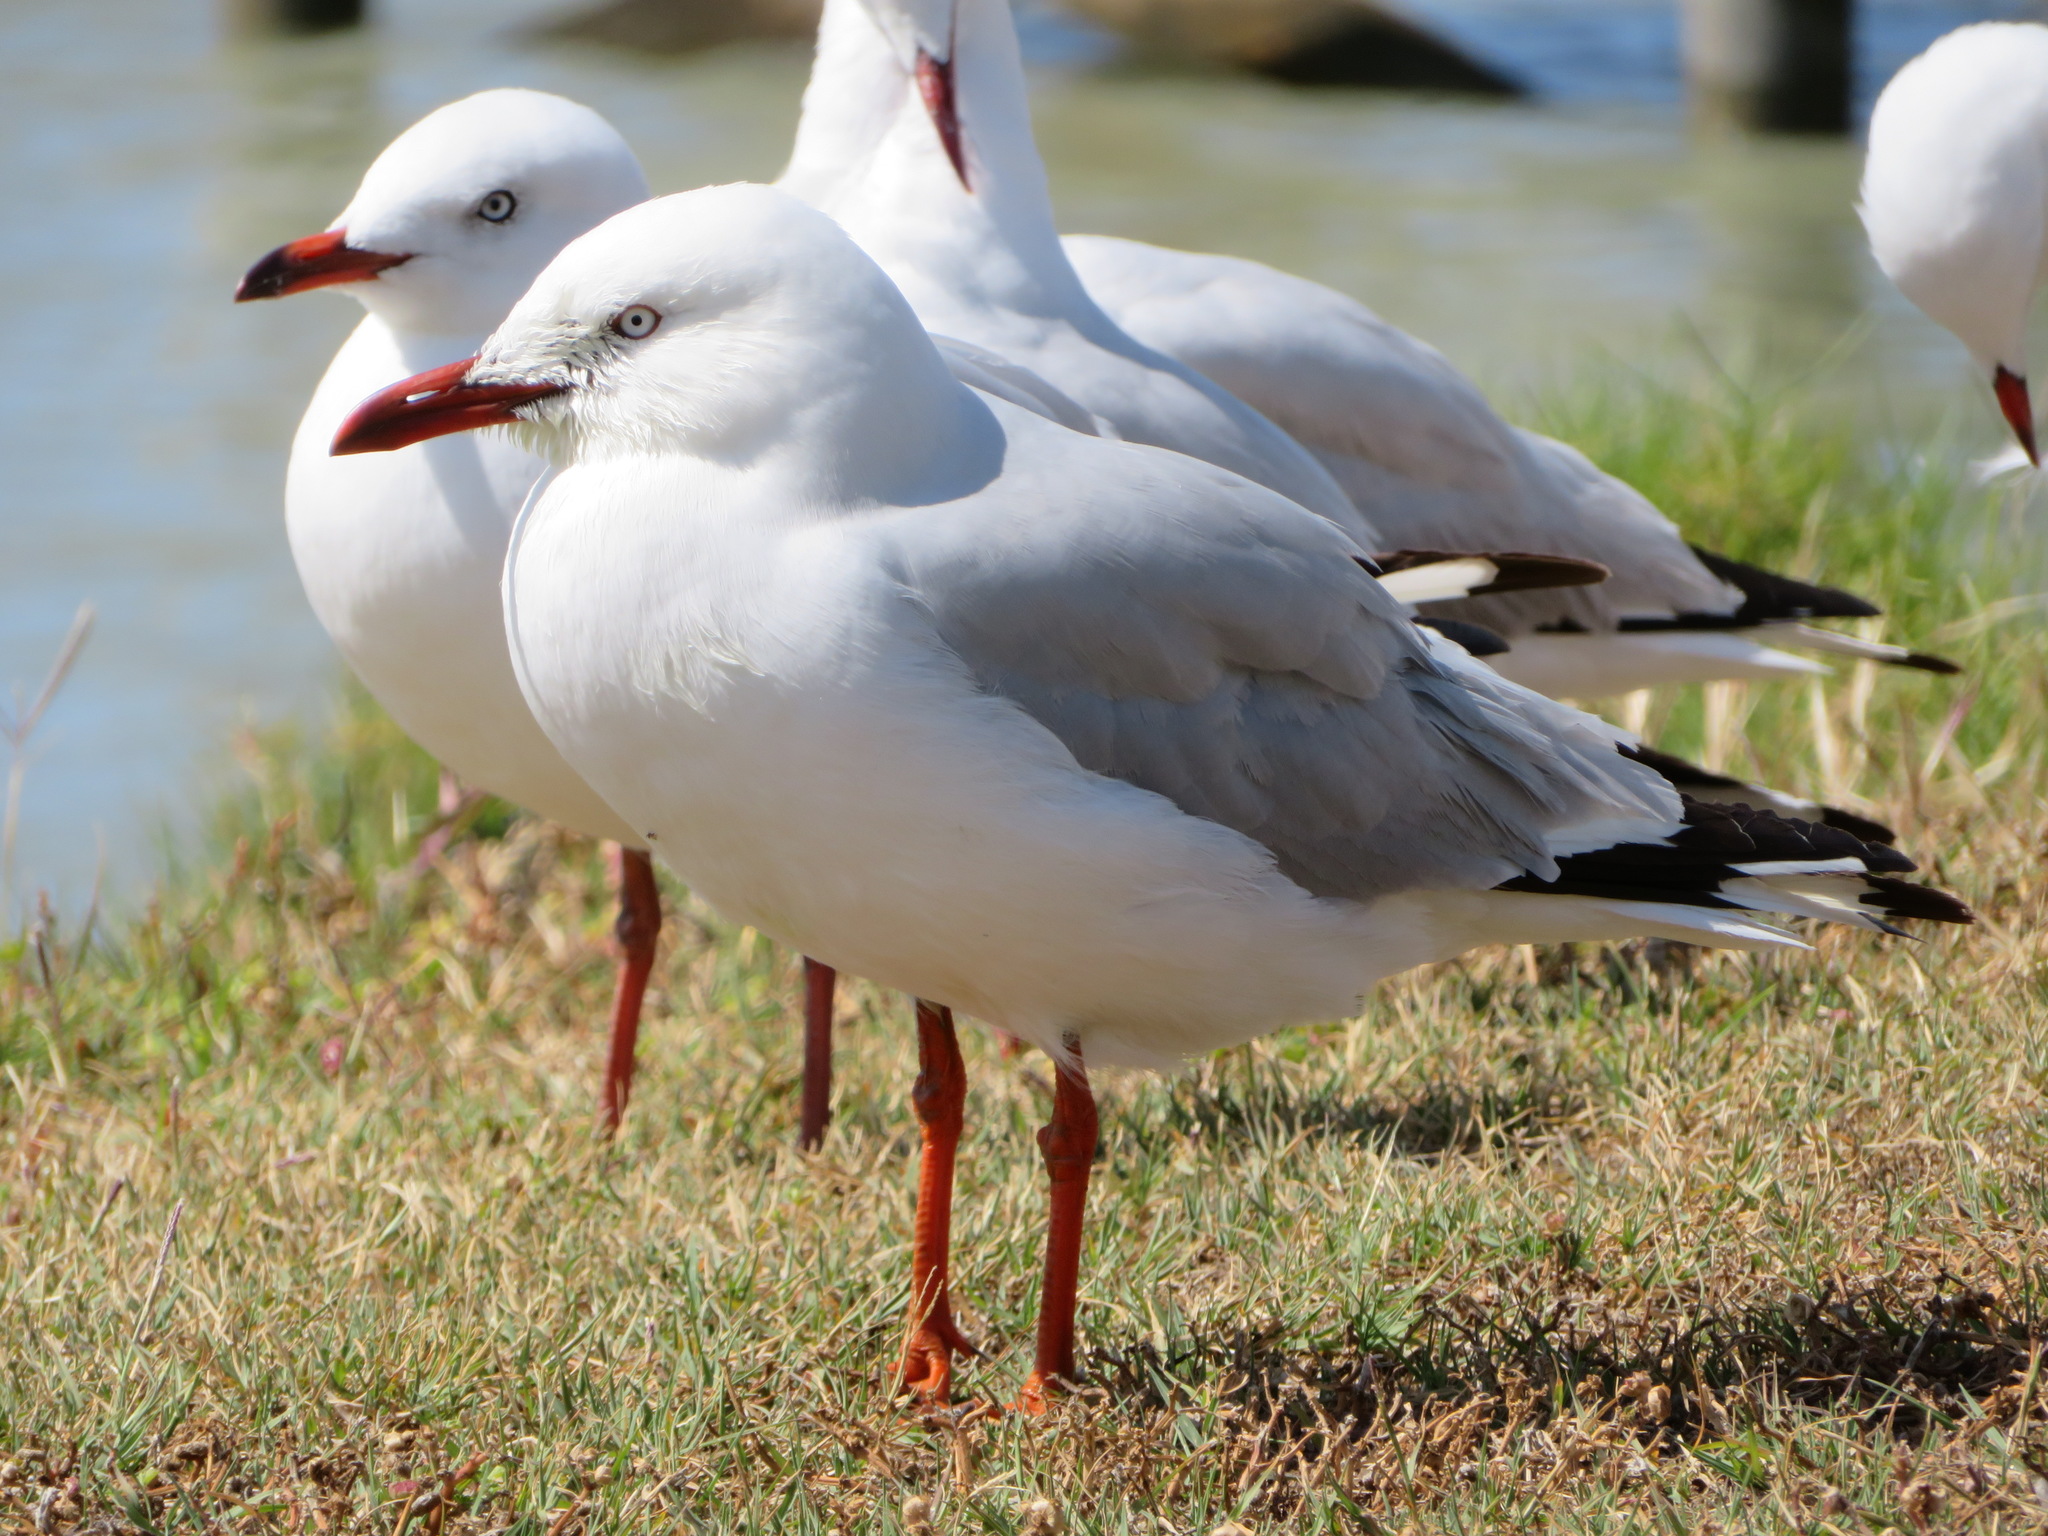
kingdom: Animalia
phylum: Chordata
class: Aves
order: Charadriiformes
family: Laridae
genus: Chroicocephalus
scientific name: Chroicocephalus novaehollandiae
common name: Silver gull
